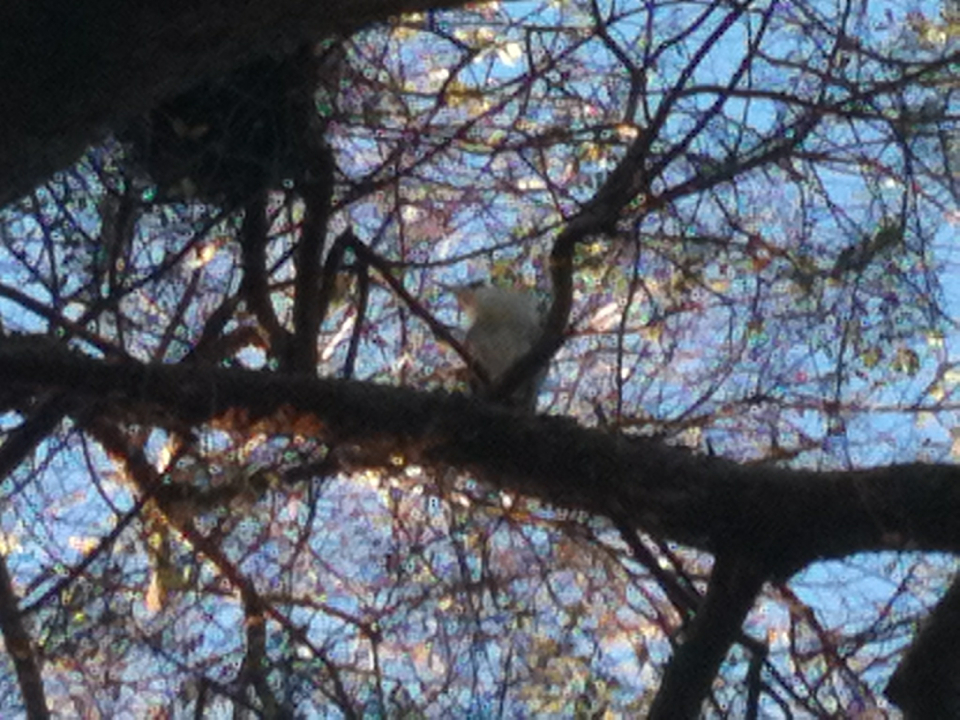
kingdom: Animalia
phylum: Chordata
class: Aves
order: Pelecaniformes
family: Ardeidae
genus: Nycticorax
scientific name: Nycticorax nycticorax
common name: Black-crowned night heron
